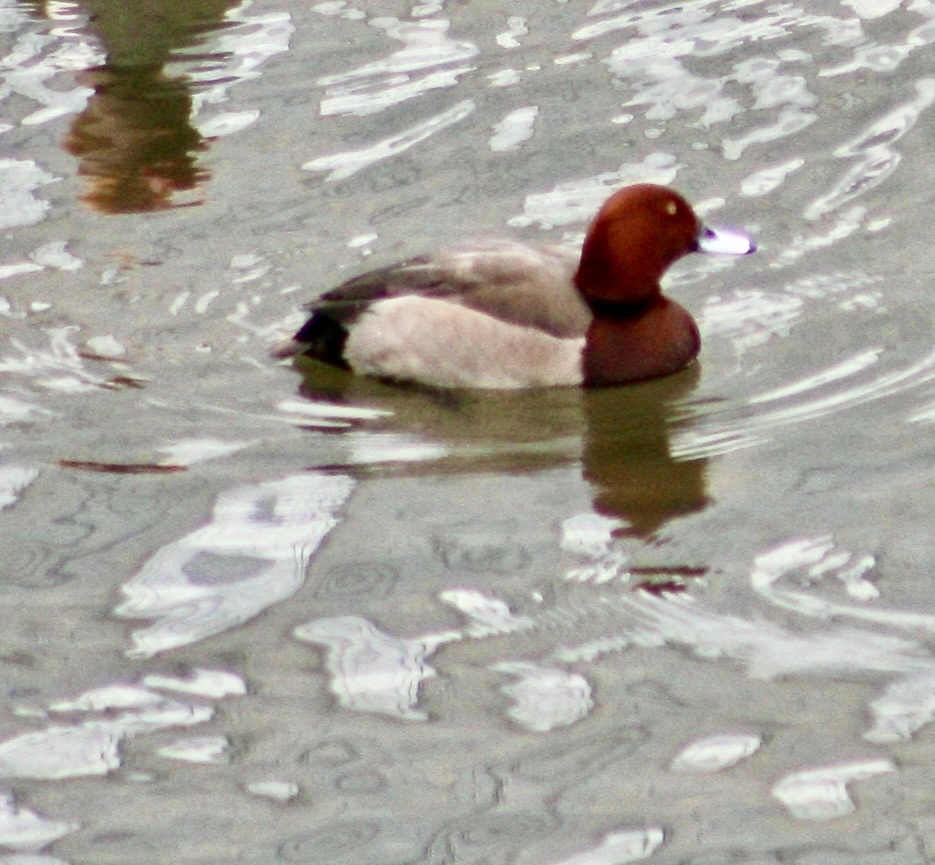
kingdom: Animalia
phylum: Chordata
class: Aves
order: Anseriformes
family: Anatidae
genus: Aythya
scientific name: Aythya
